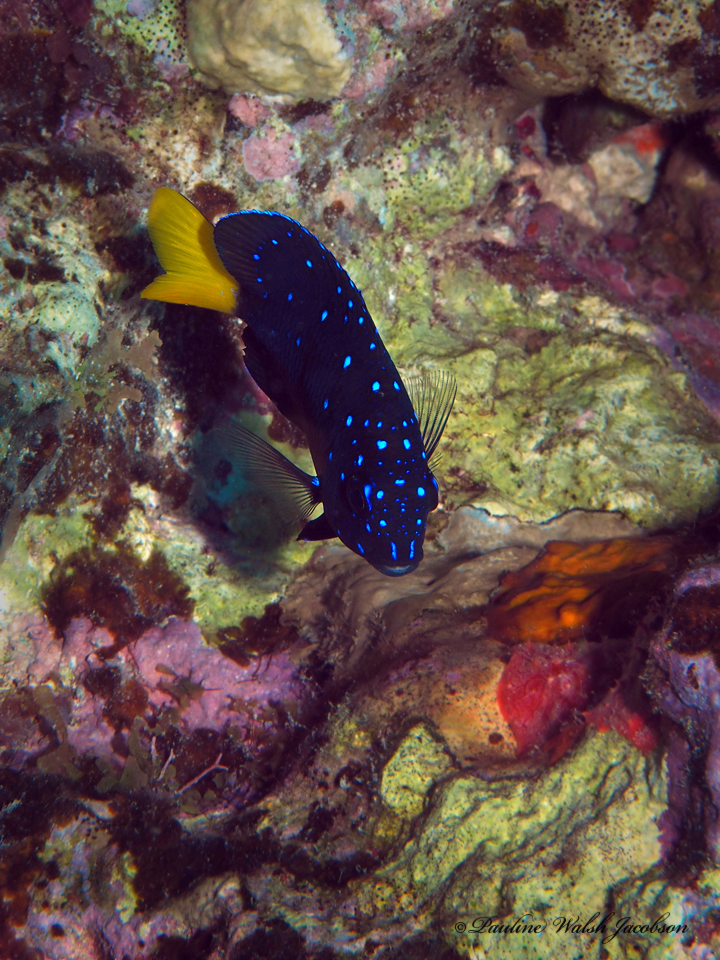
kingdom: Animalia
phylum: Chordata
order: Perciformes
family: Pomacentridae
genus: Microspathodon
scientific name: Microspathodon chrysurus
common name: Yellowtail damselfish
